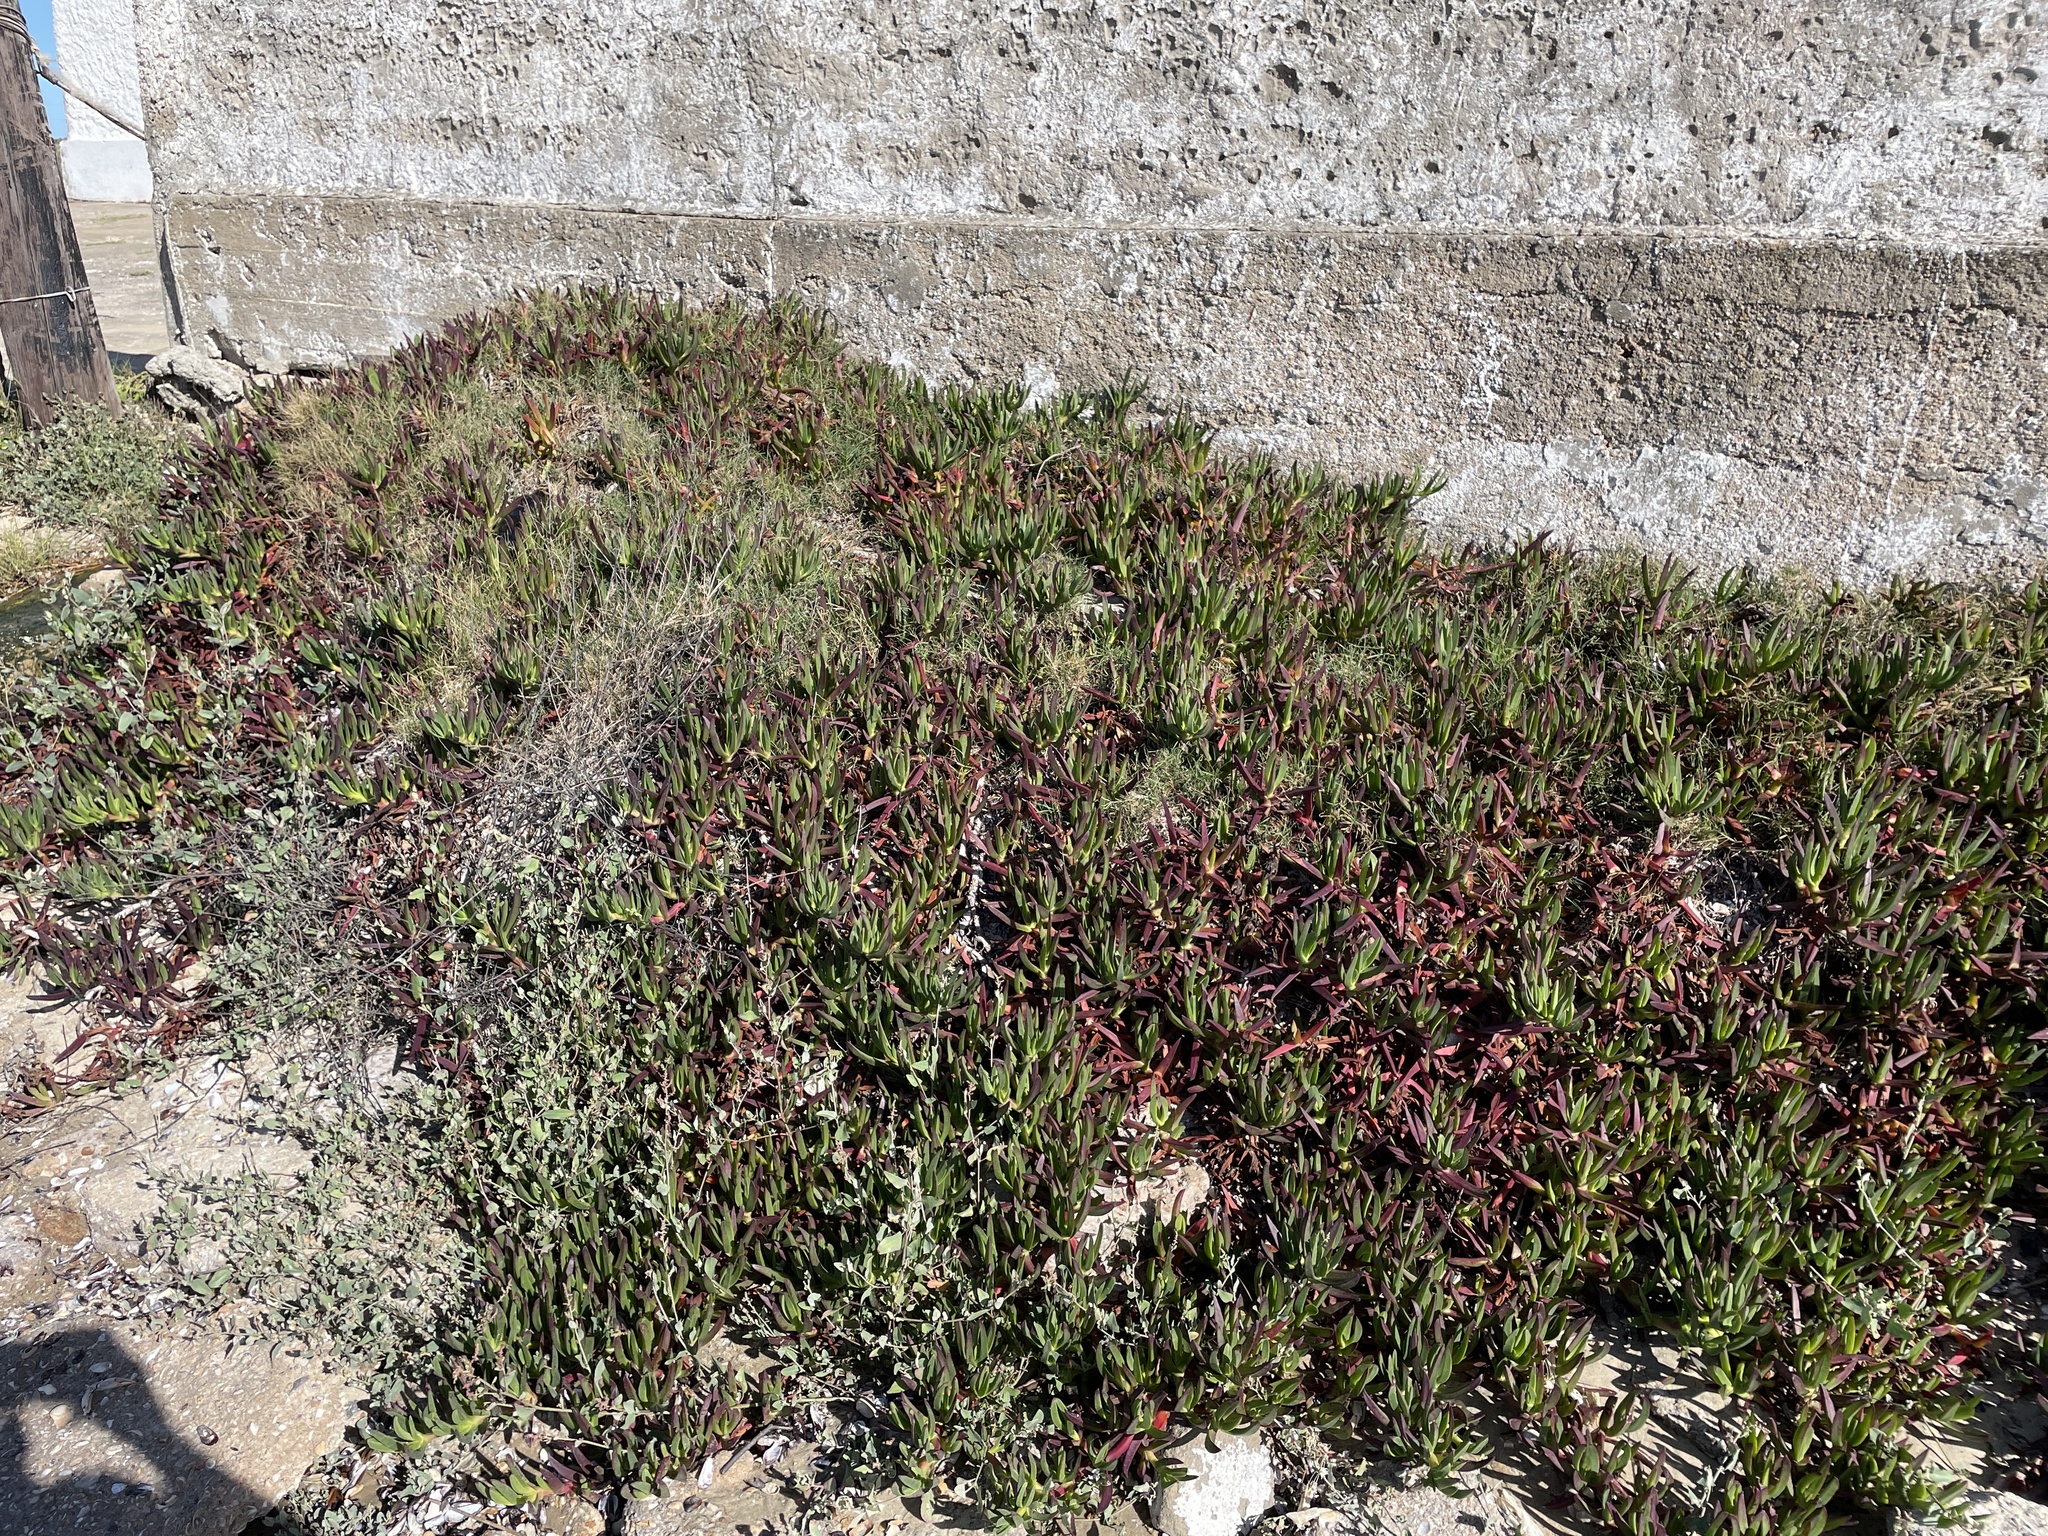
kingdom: Plantae
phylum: Tracheophyta
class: Magnoliopsida
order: Caryophyllales
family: Aizoaceae
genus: Carpobrotus
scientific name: Carpobrotus edulis
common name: Hottentot-fig
